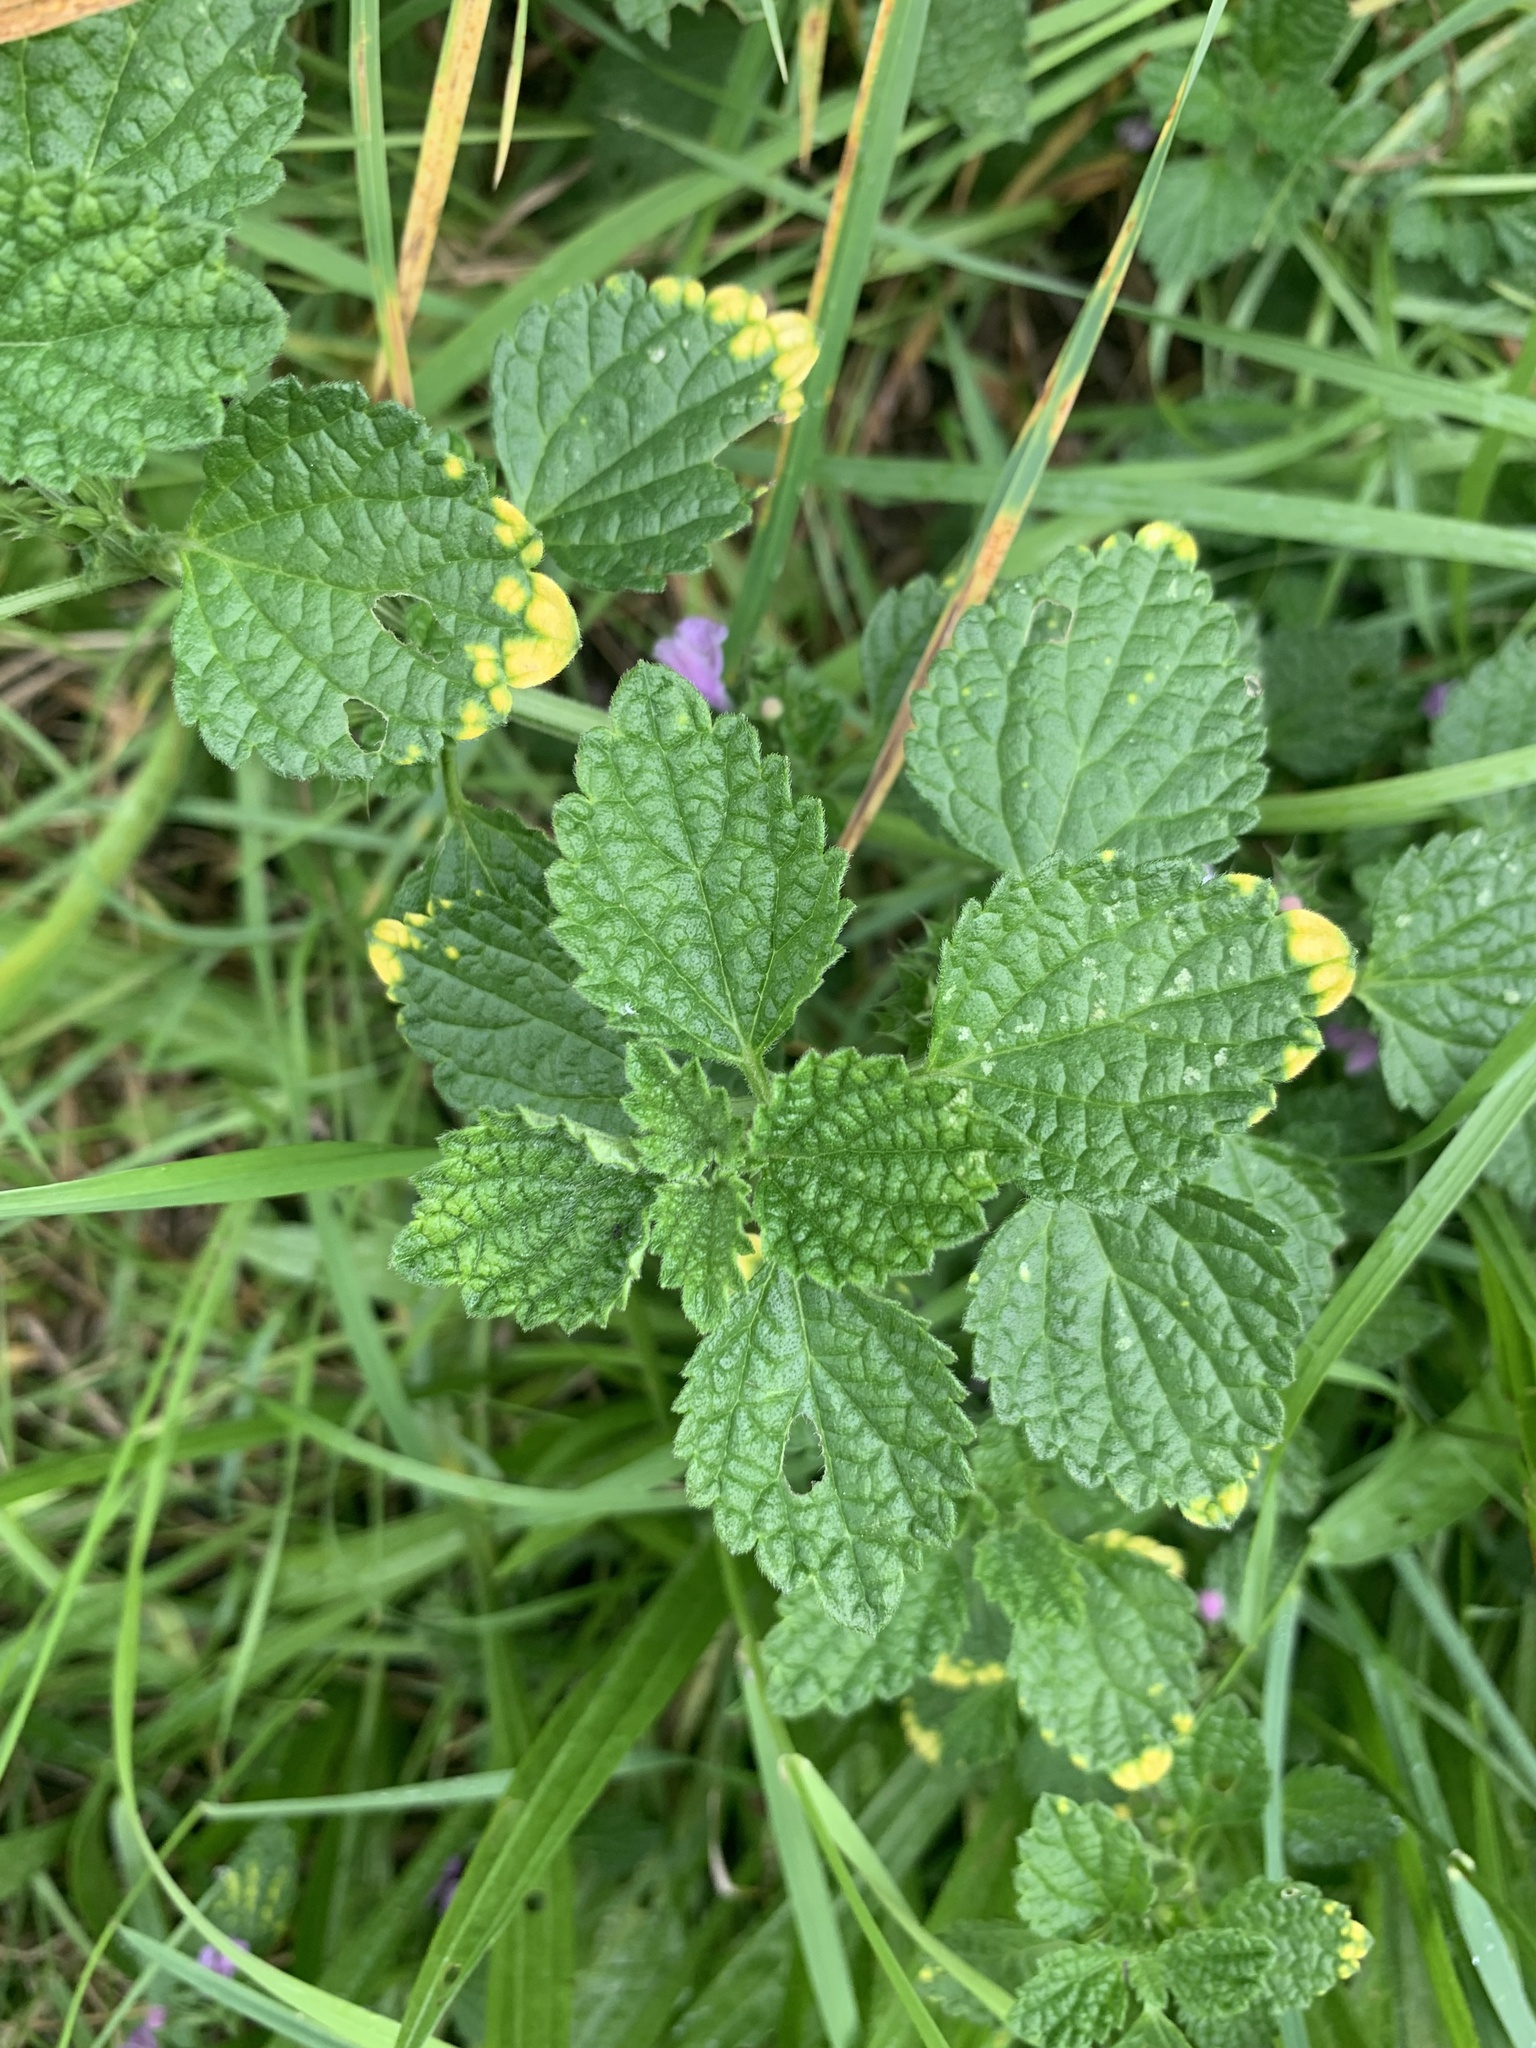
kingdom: Plantae
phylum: Tracheophyta
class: Magnoliopsida
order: Lamiales
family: Lamiaceae
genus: Ballota
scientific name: Ballota nigra
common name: Black horehound
